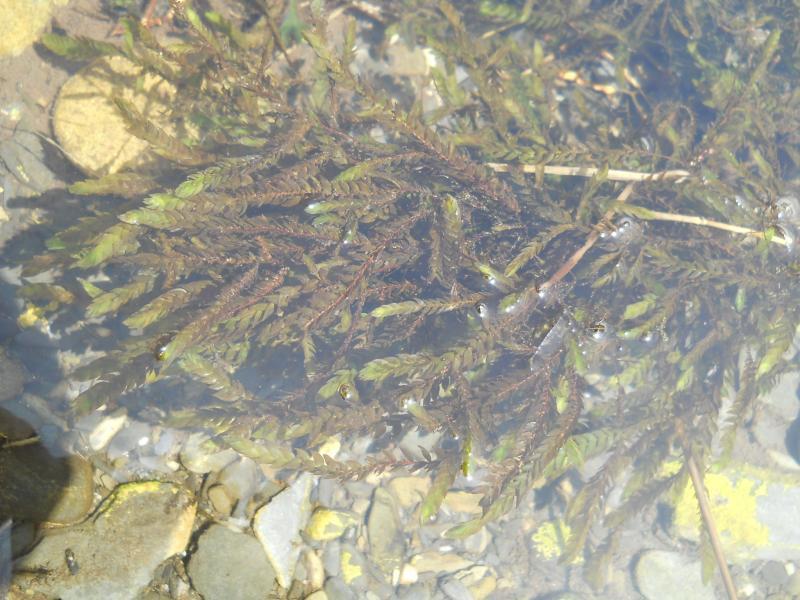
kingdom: Plantae
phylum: Bryophyta
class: Bryopsida
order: Hypnales
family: Fontinalaceae
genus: Fontinalis
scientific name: Fontinalis antipyretica
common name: Greater water-moss
